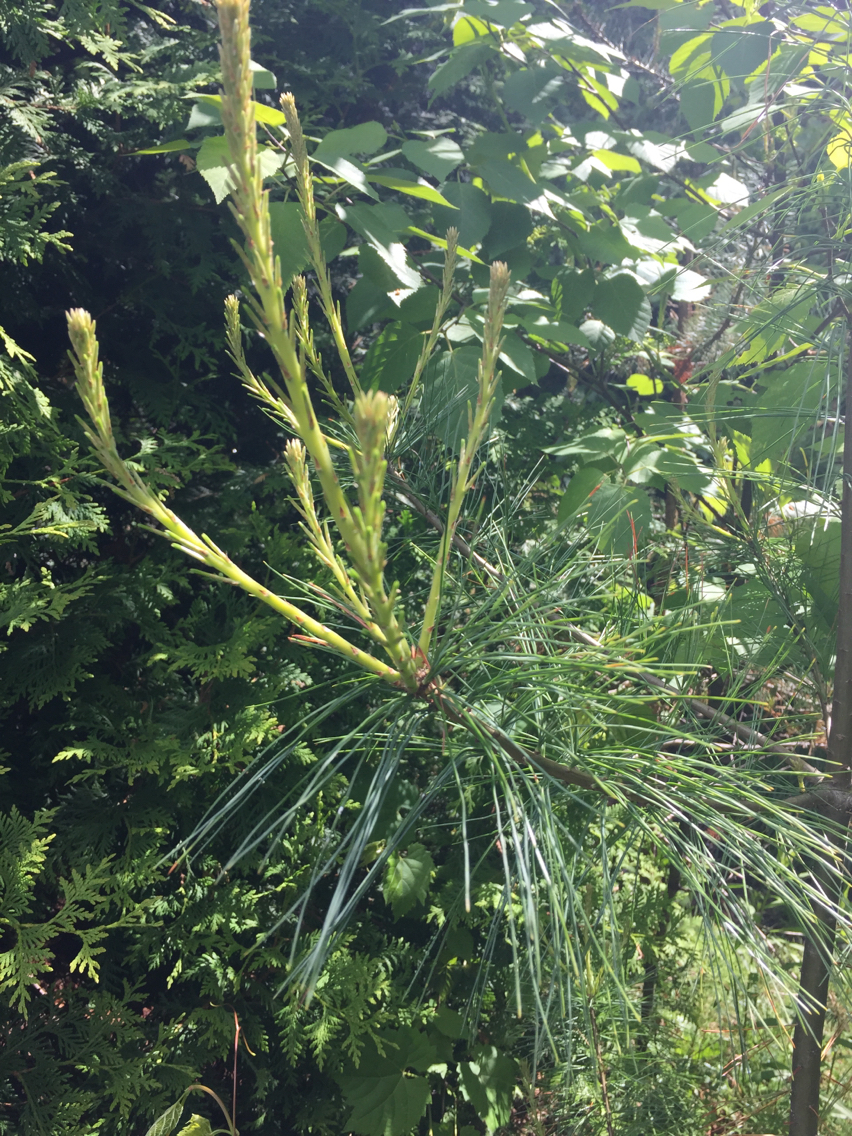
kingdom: Plantae
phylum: Tracheophyta
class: Pinopsida
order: Pinales
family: Pinaceae
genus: Pinus
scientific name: Pinus strobus
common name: Weymouth pine
